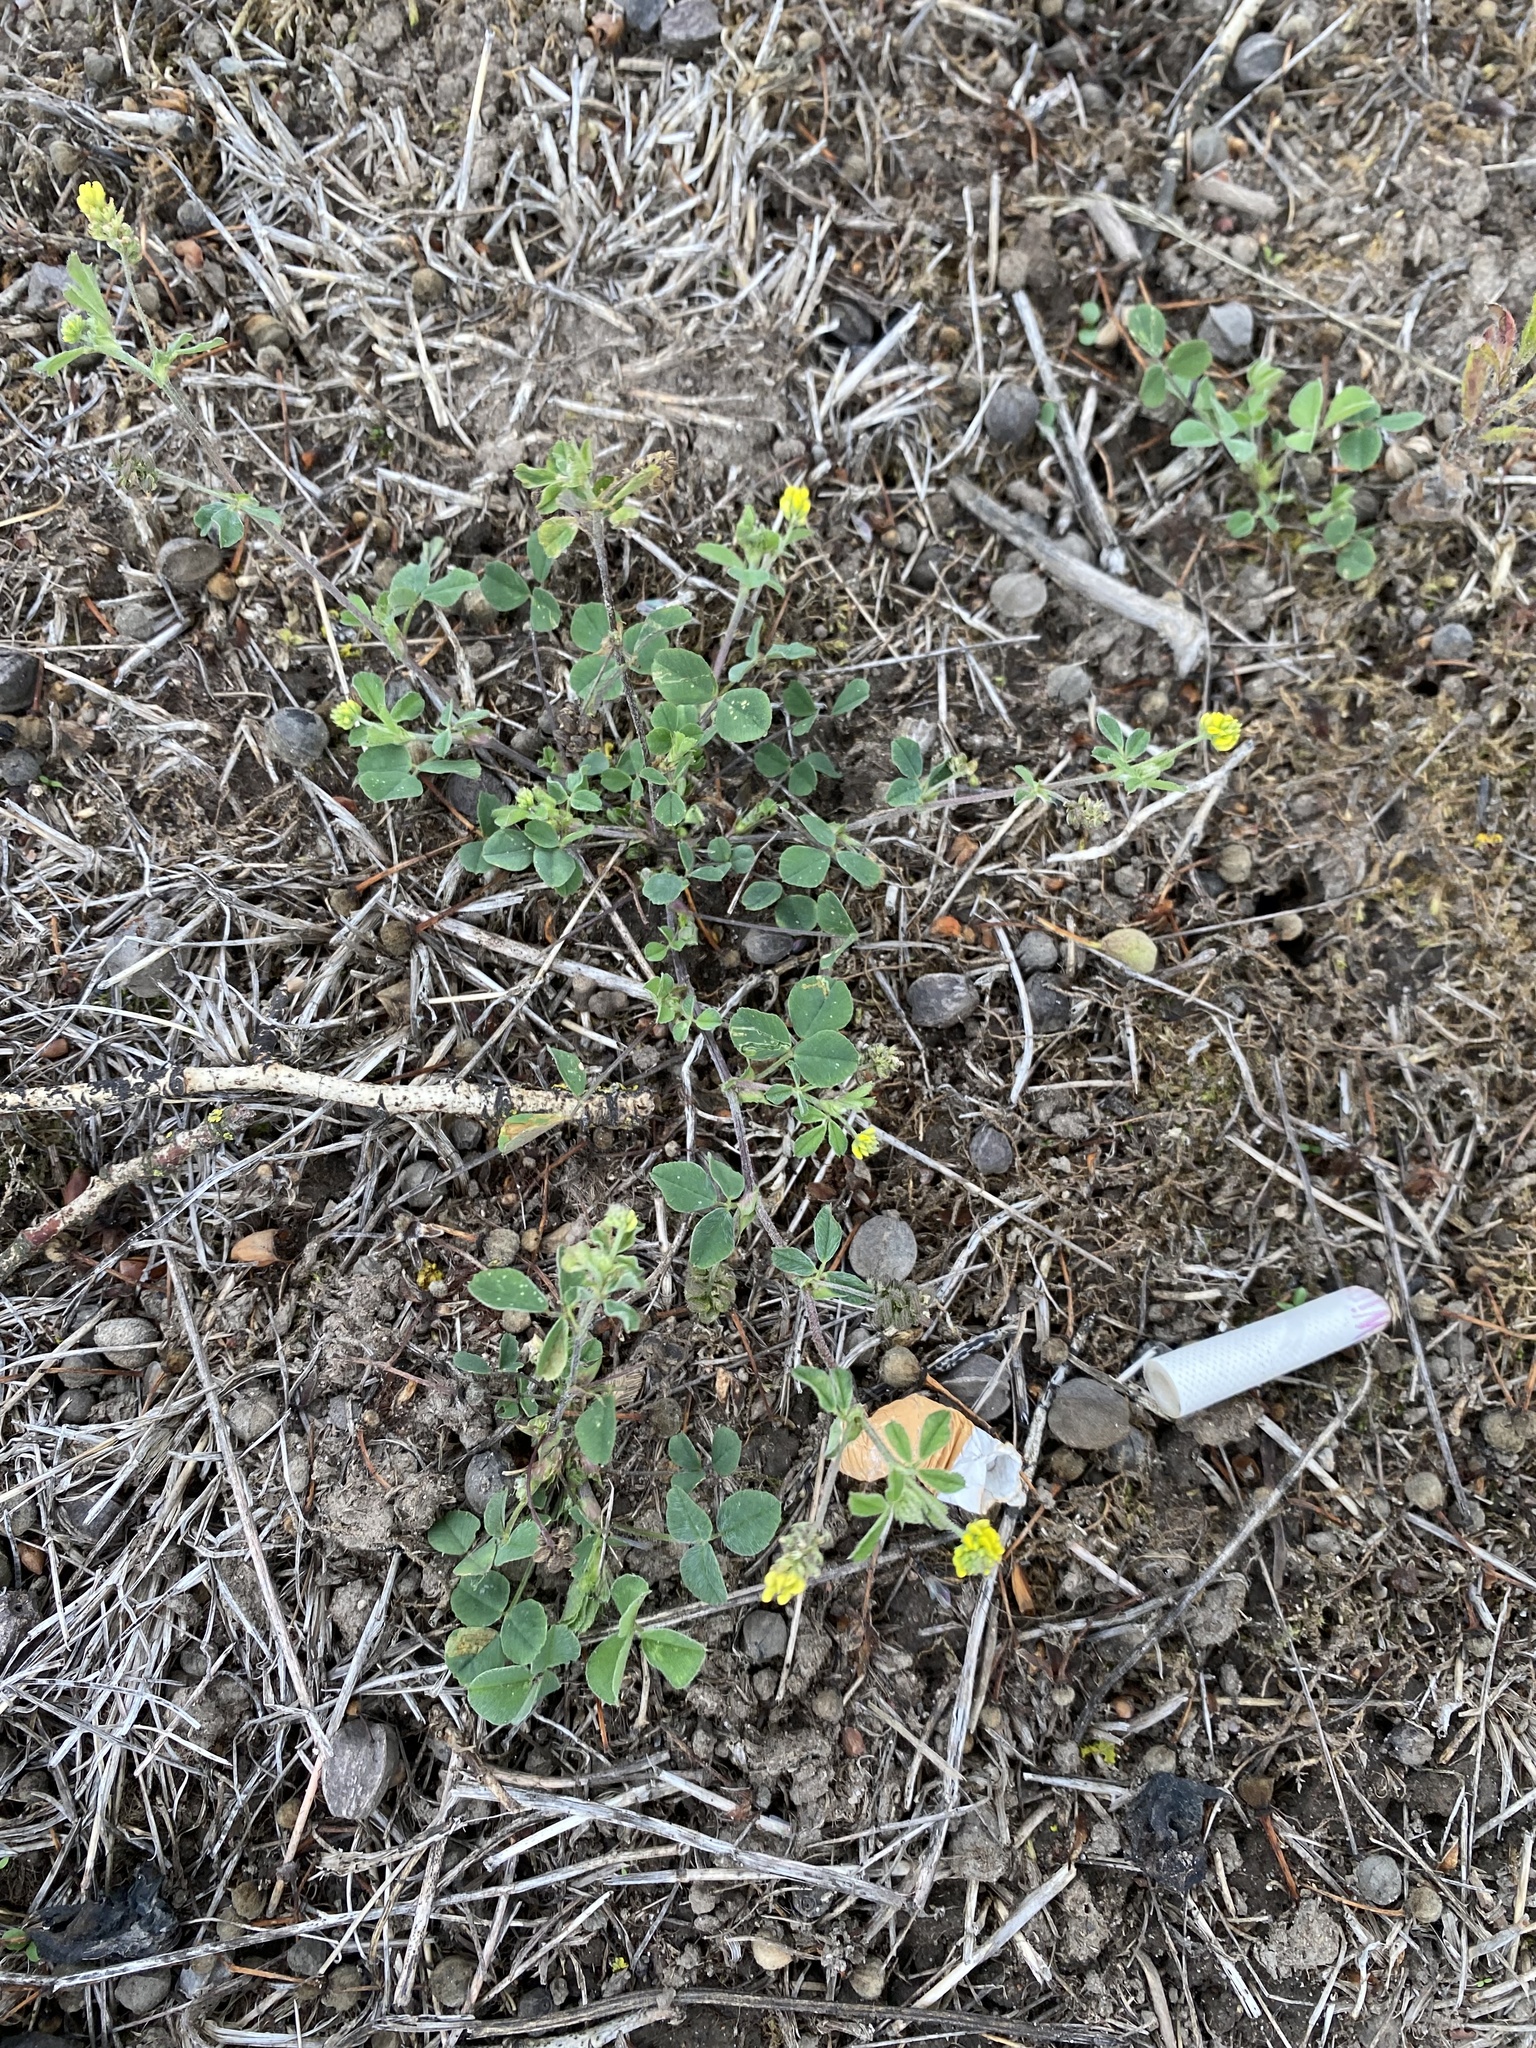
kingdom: Plantae
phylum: Tracheophyta
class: Magnoliopsida
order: Fabales
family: Fabaceae
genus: Medicago
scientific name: Medicago lupulina
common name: Black medick
